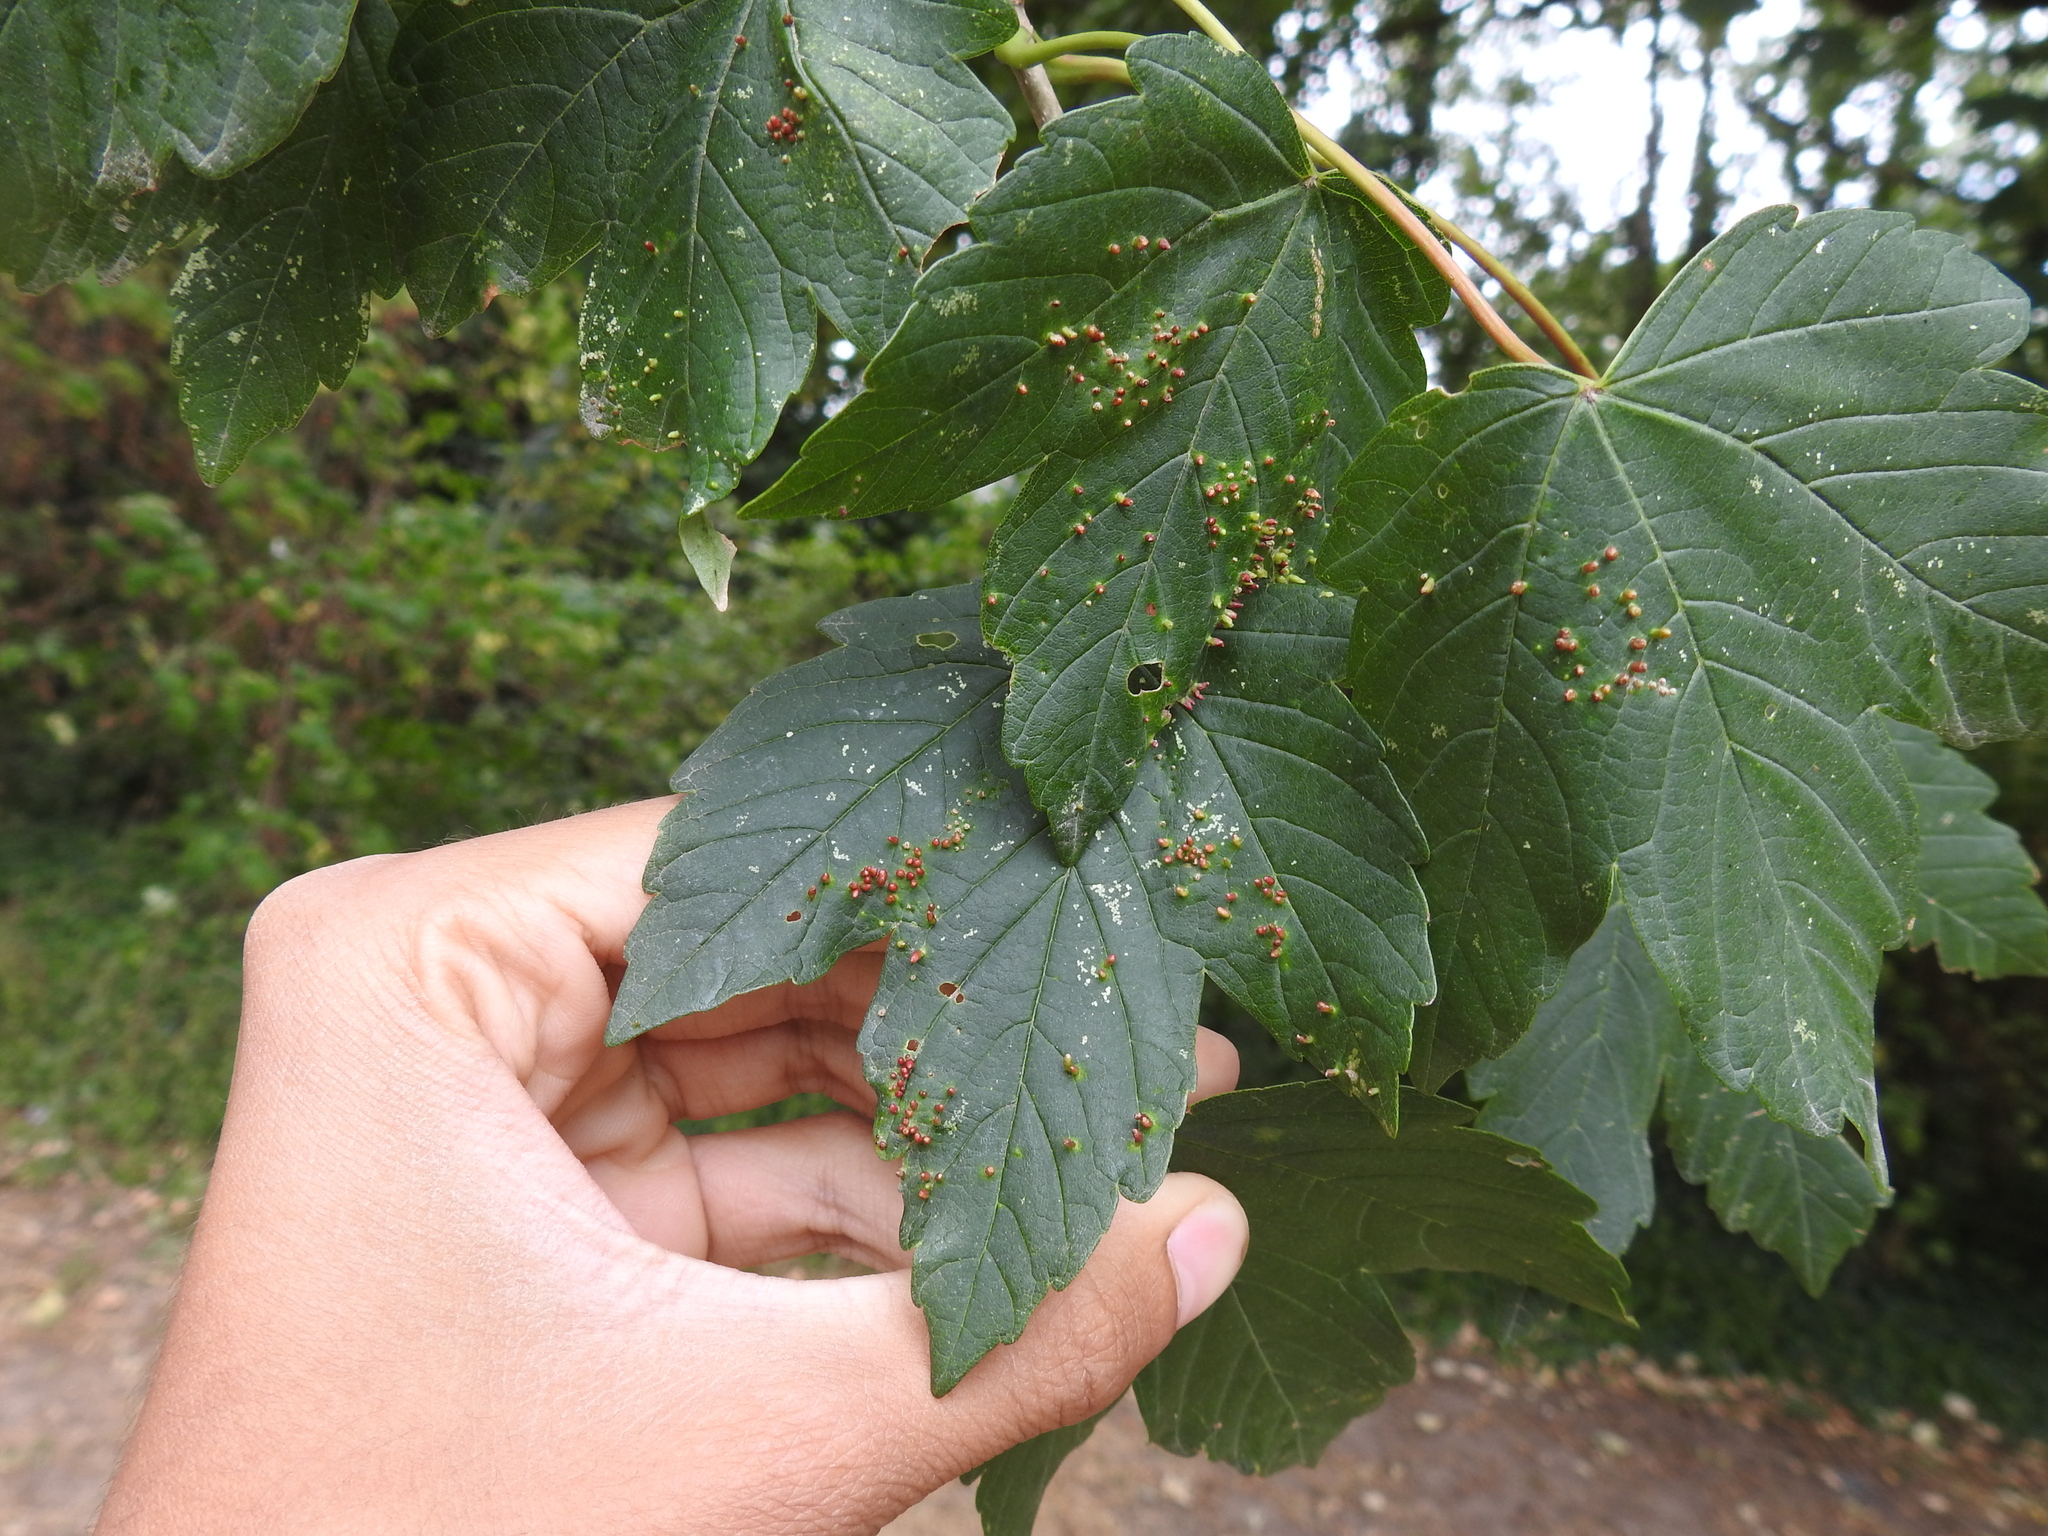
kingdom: Animalia
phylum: Arthropoda
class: Arachnida
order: Trombidiformes
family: Eriophyidae
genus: Aceria
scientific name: Aceria cephaloneus
